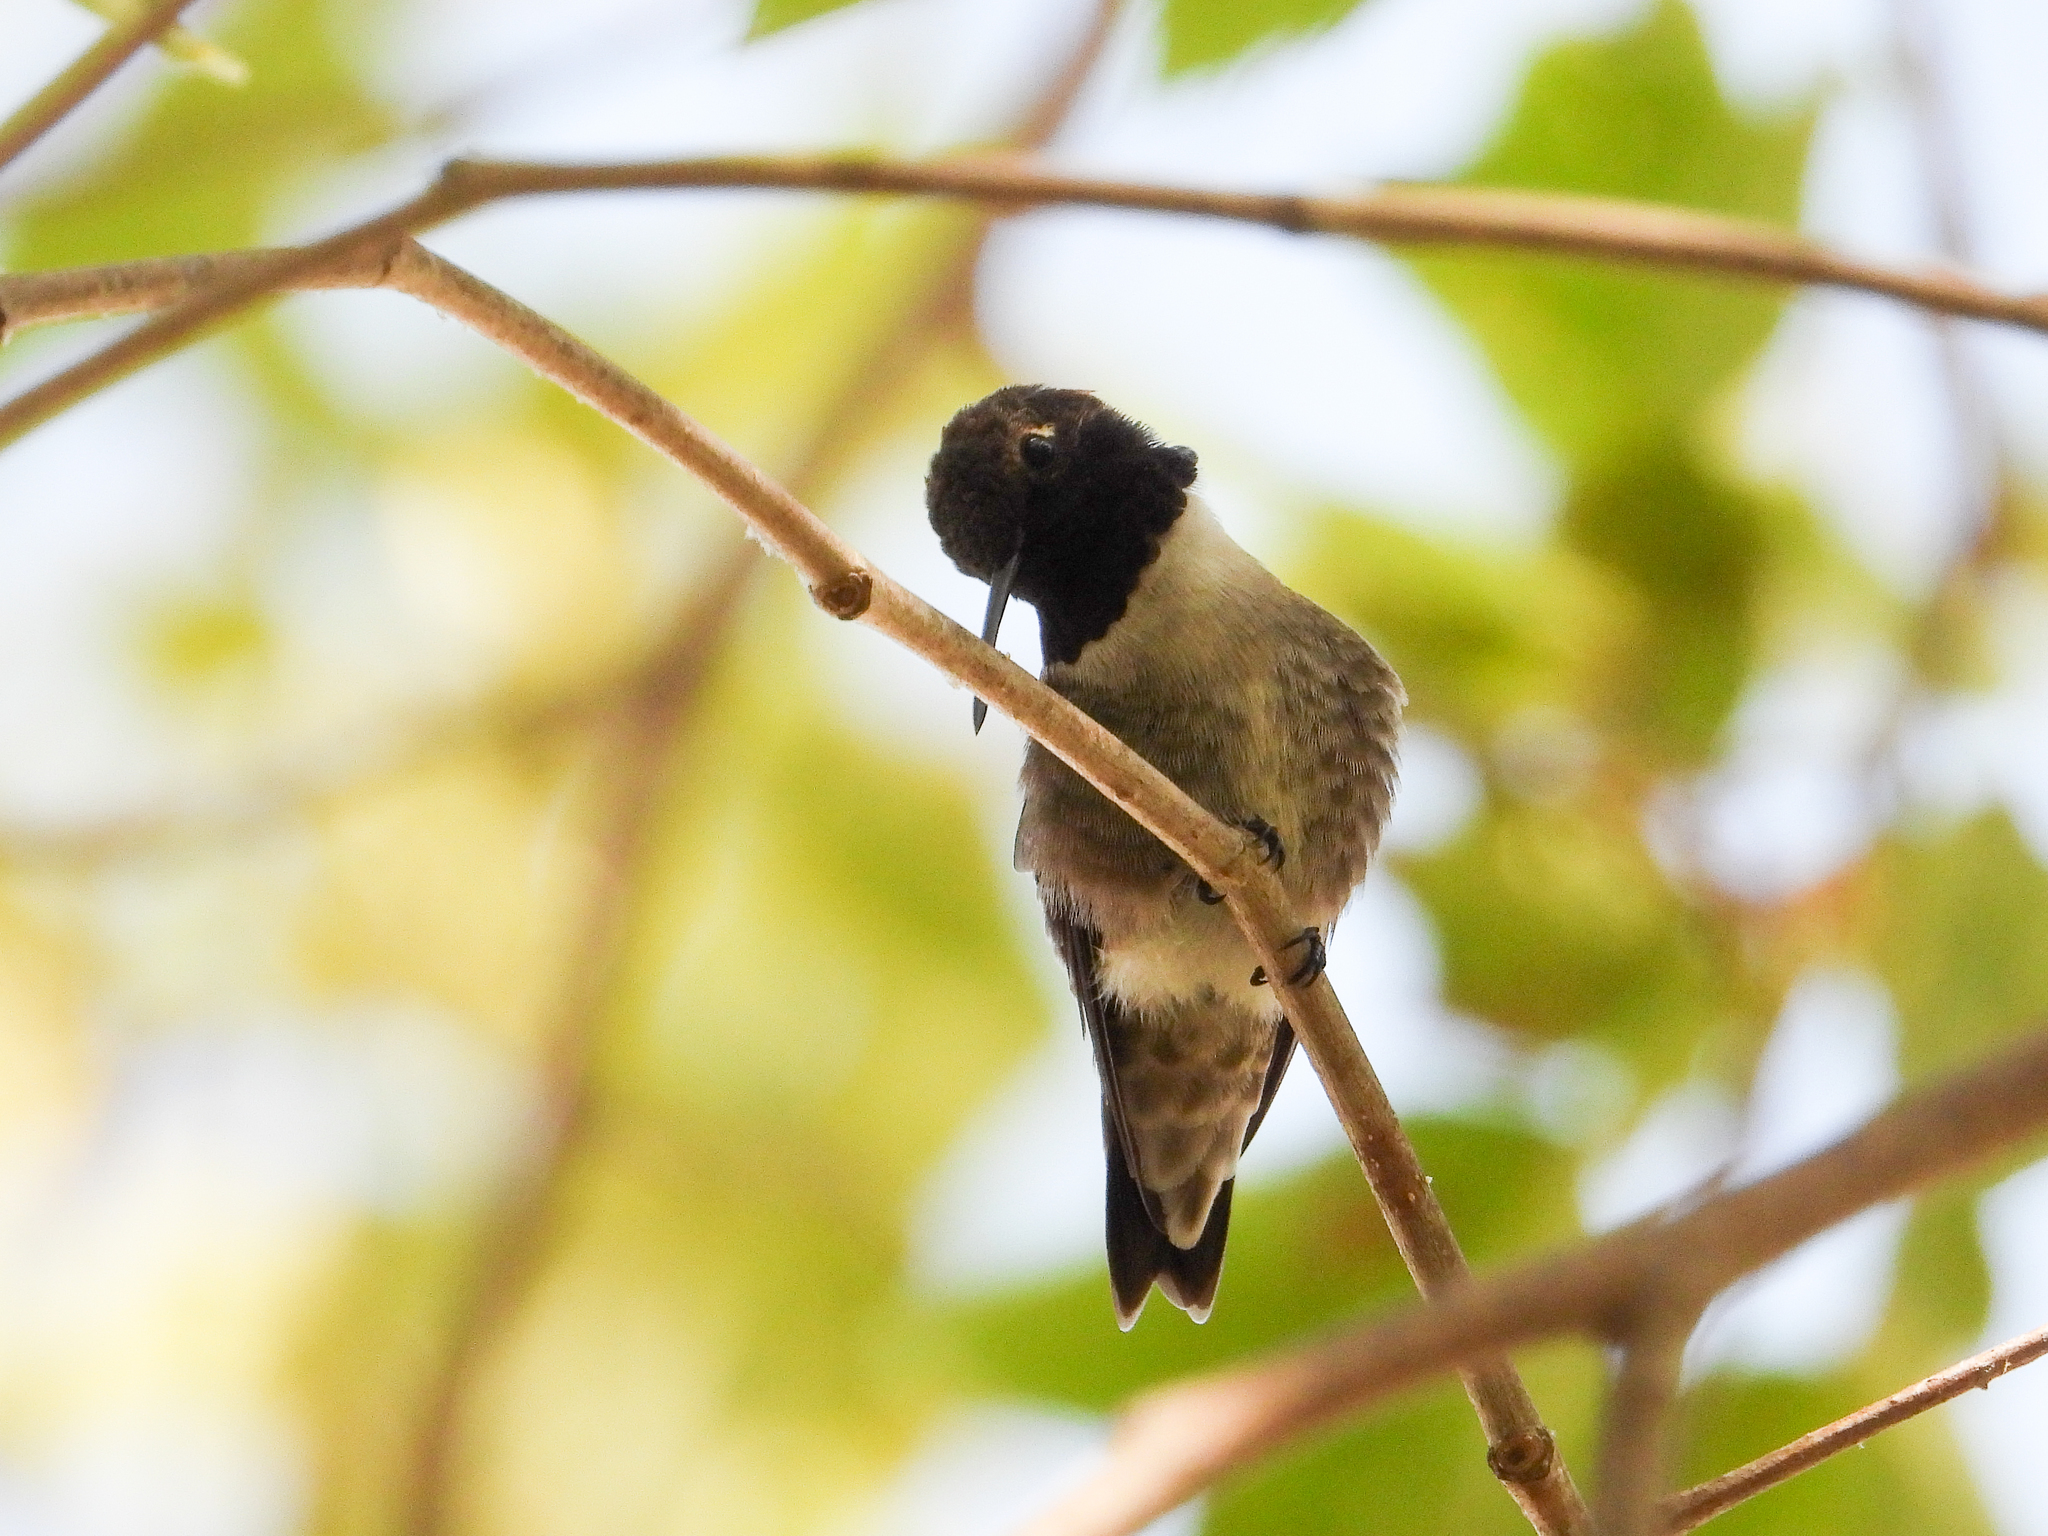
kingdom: Animalia
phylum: Chordata
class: Aves
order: Apodiformes
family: Trochilidae
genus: Archilochus
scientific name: Archilochus alexandri
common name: Black-chinned hummingbird
